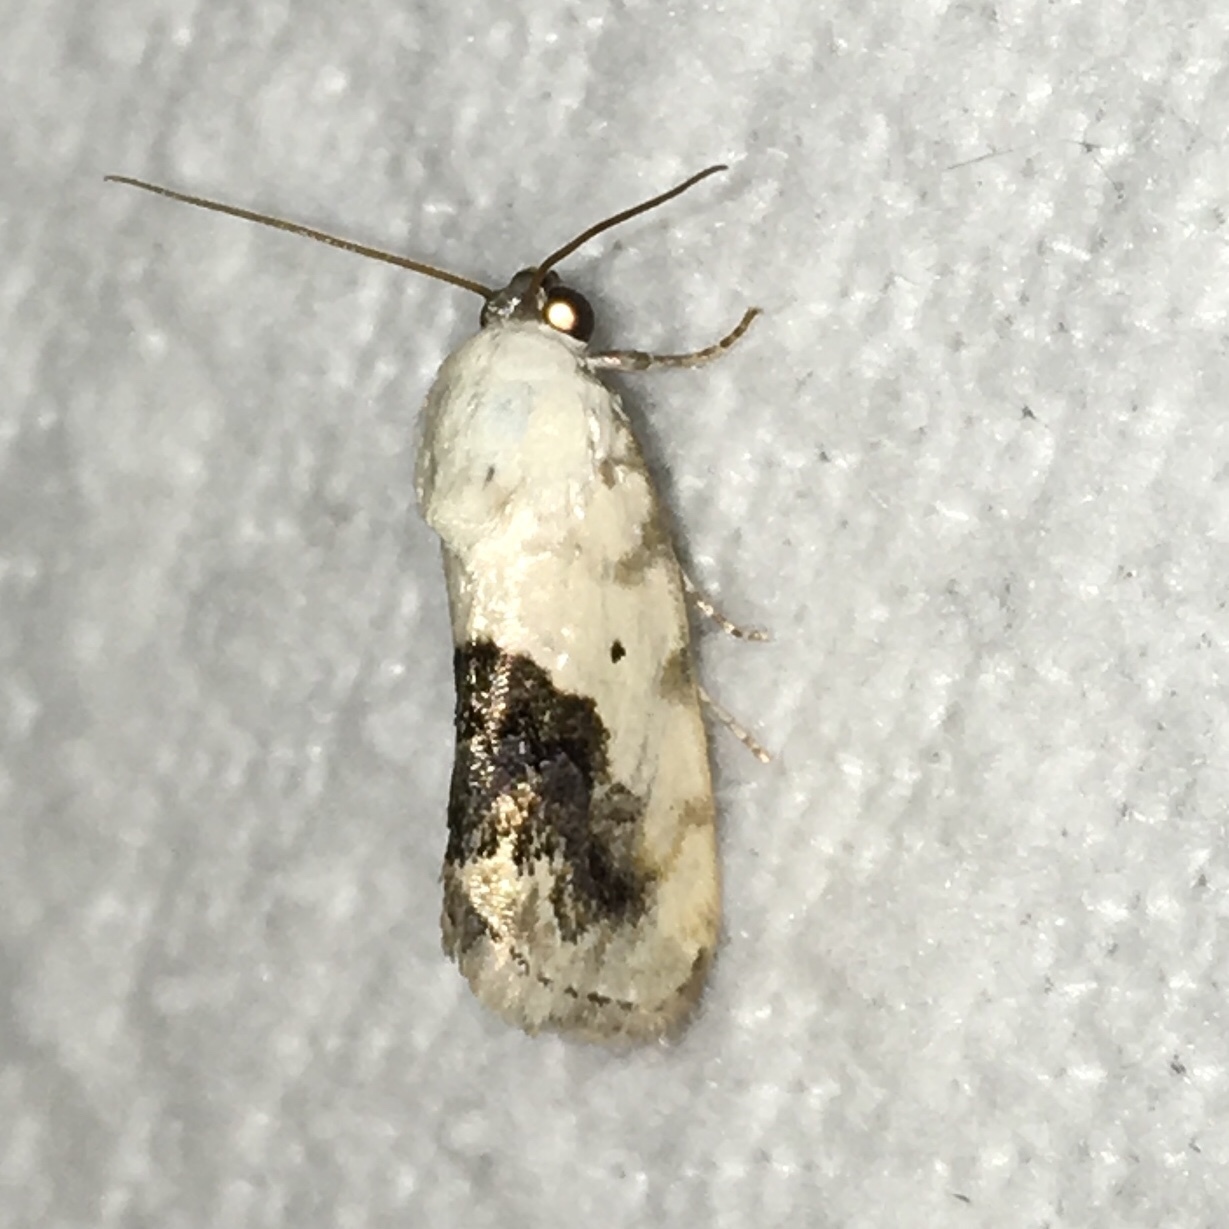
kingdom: Animalia
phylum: Arthropoda
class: Insecta
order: Lepidoptera
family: Noctuidae
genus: Acontia
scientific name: Acontia erastrioides
